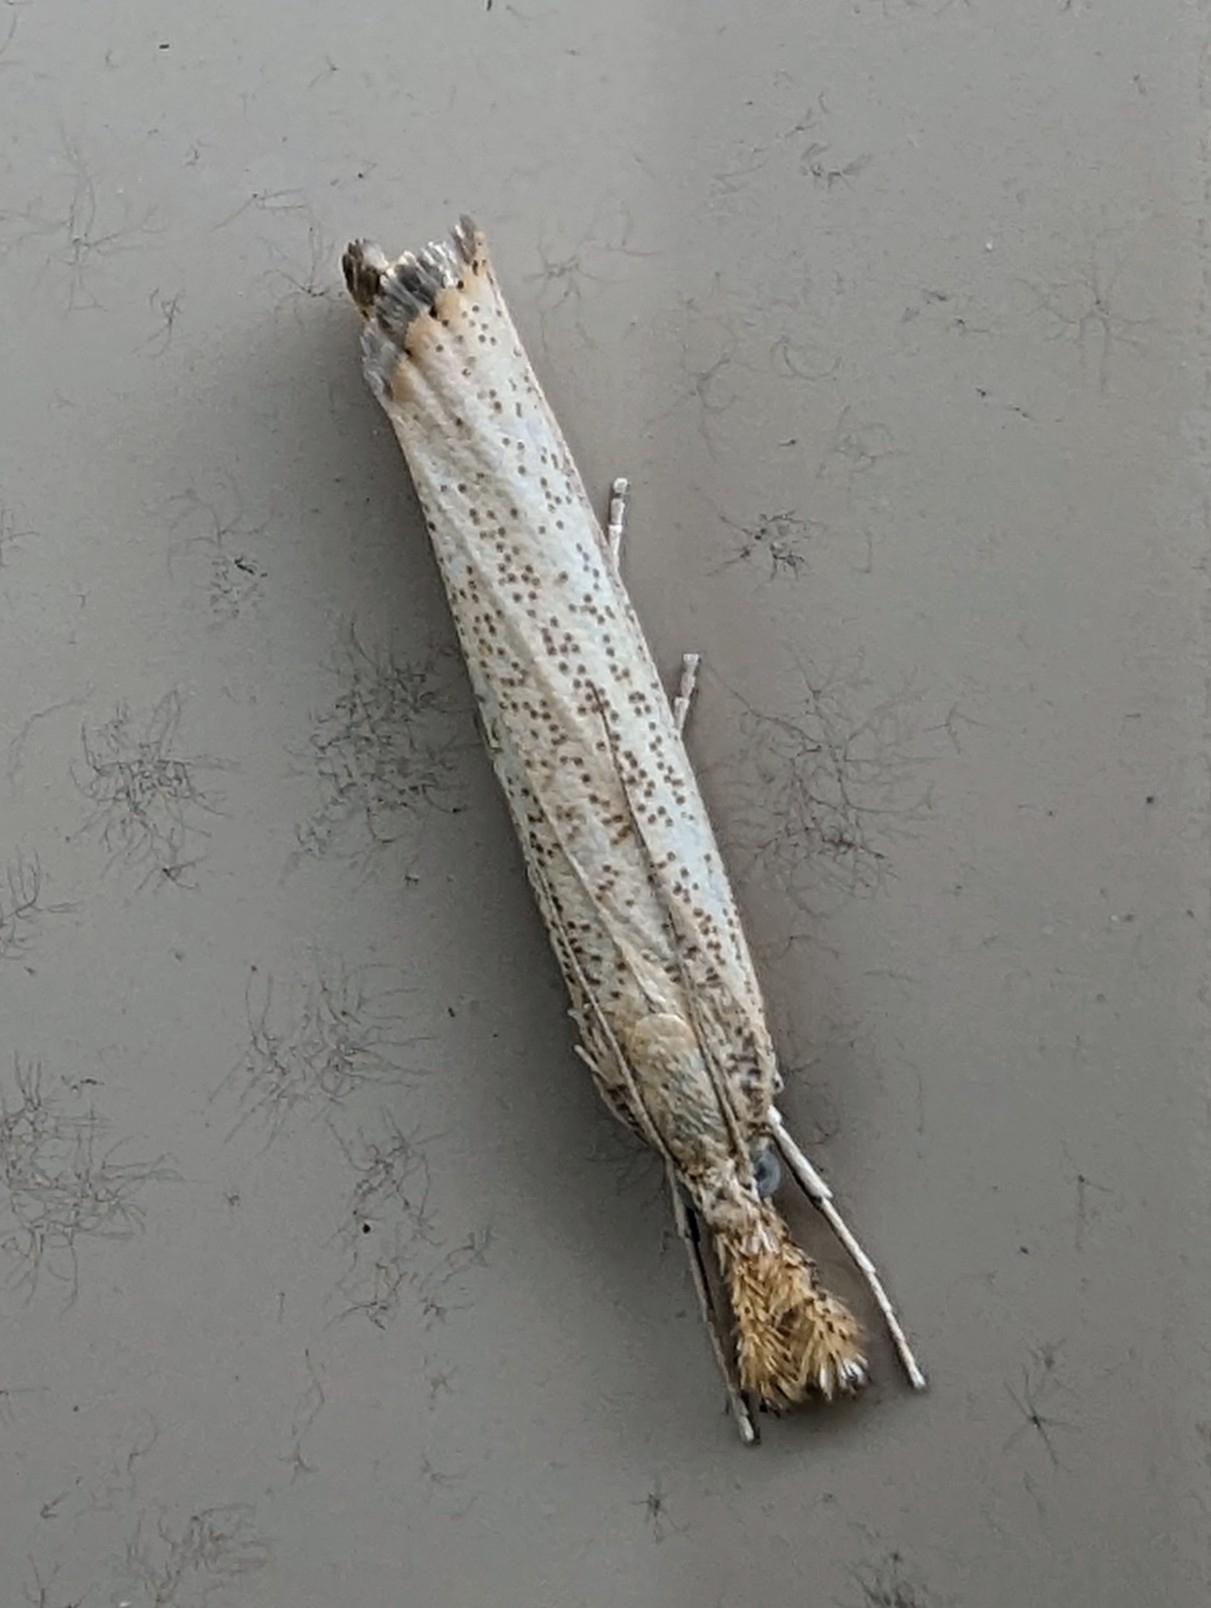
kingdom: Animalia
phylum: Arthropoda
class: Insecta
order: Lepidoptera
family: Crambidae
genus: Agriphila
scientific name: Agriphila vulgivagellus
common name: Vagabond crambus moth
